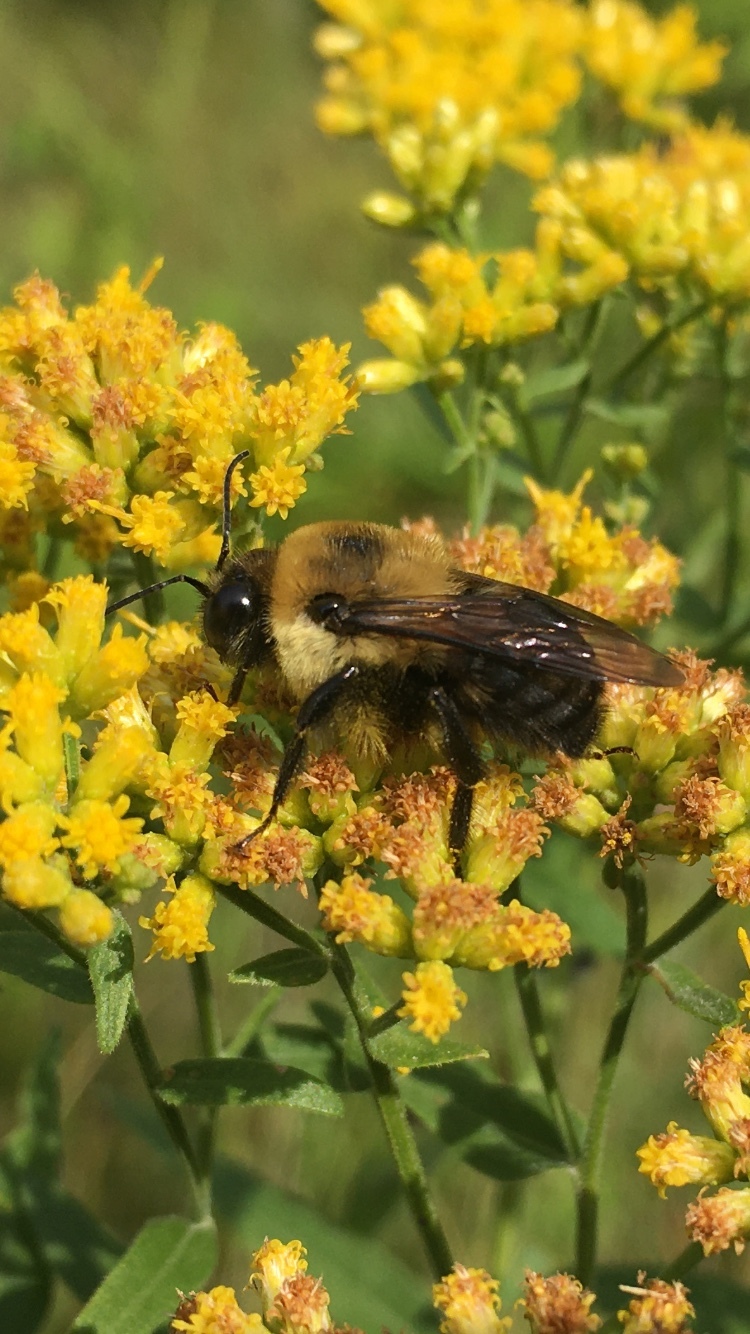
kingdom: Animalia
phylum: Arthropoda
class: Insecta
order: Hymenoptera
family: Apidae
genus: Bombus
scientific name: Bombus griseocollis
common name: Brown-belted bumble bee
